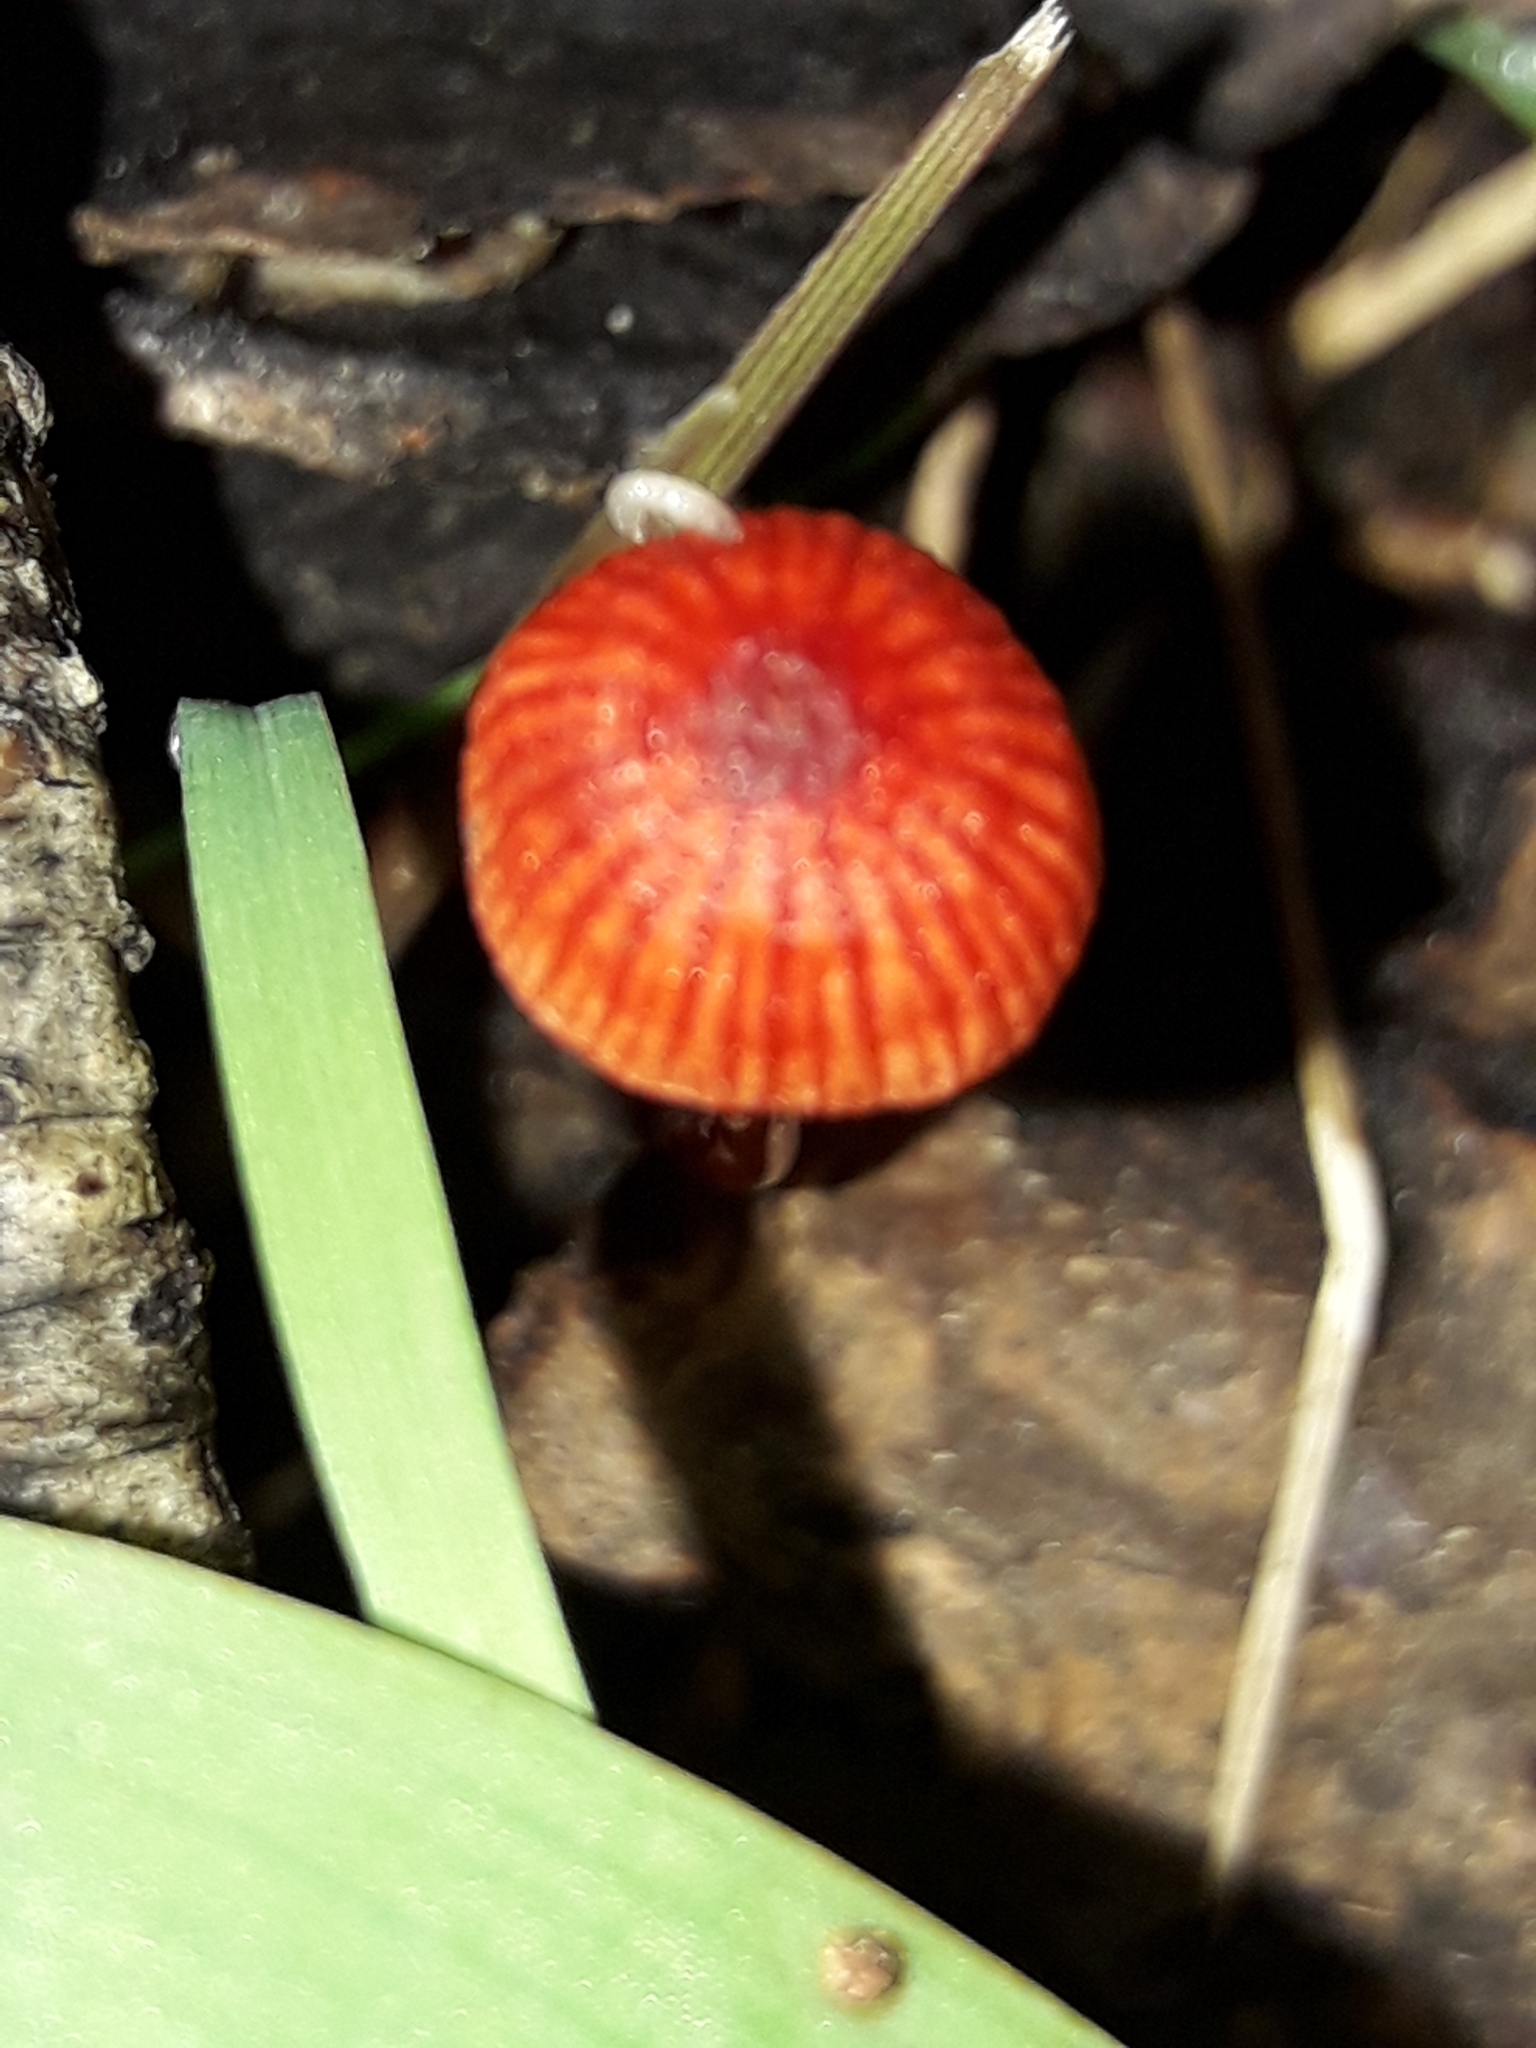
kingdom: Fungi
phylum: Basidiomycota
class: Agaricomycetes
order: Agaricales
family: Mycenaceae
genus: Cruentomycena
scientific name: Cruentomycena viscidocruenta
